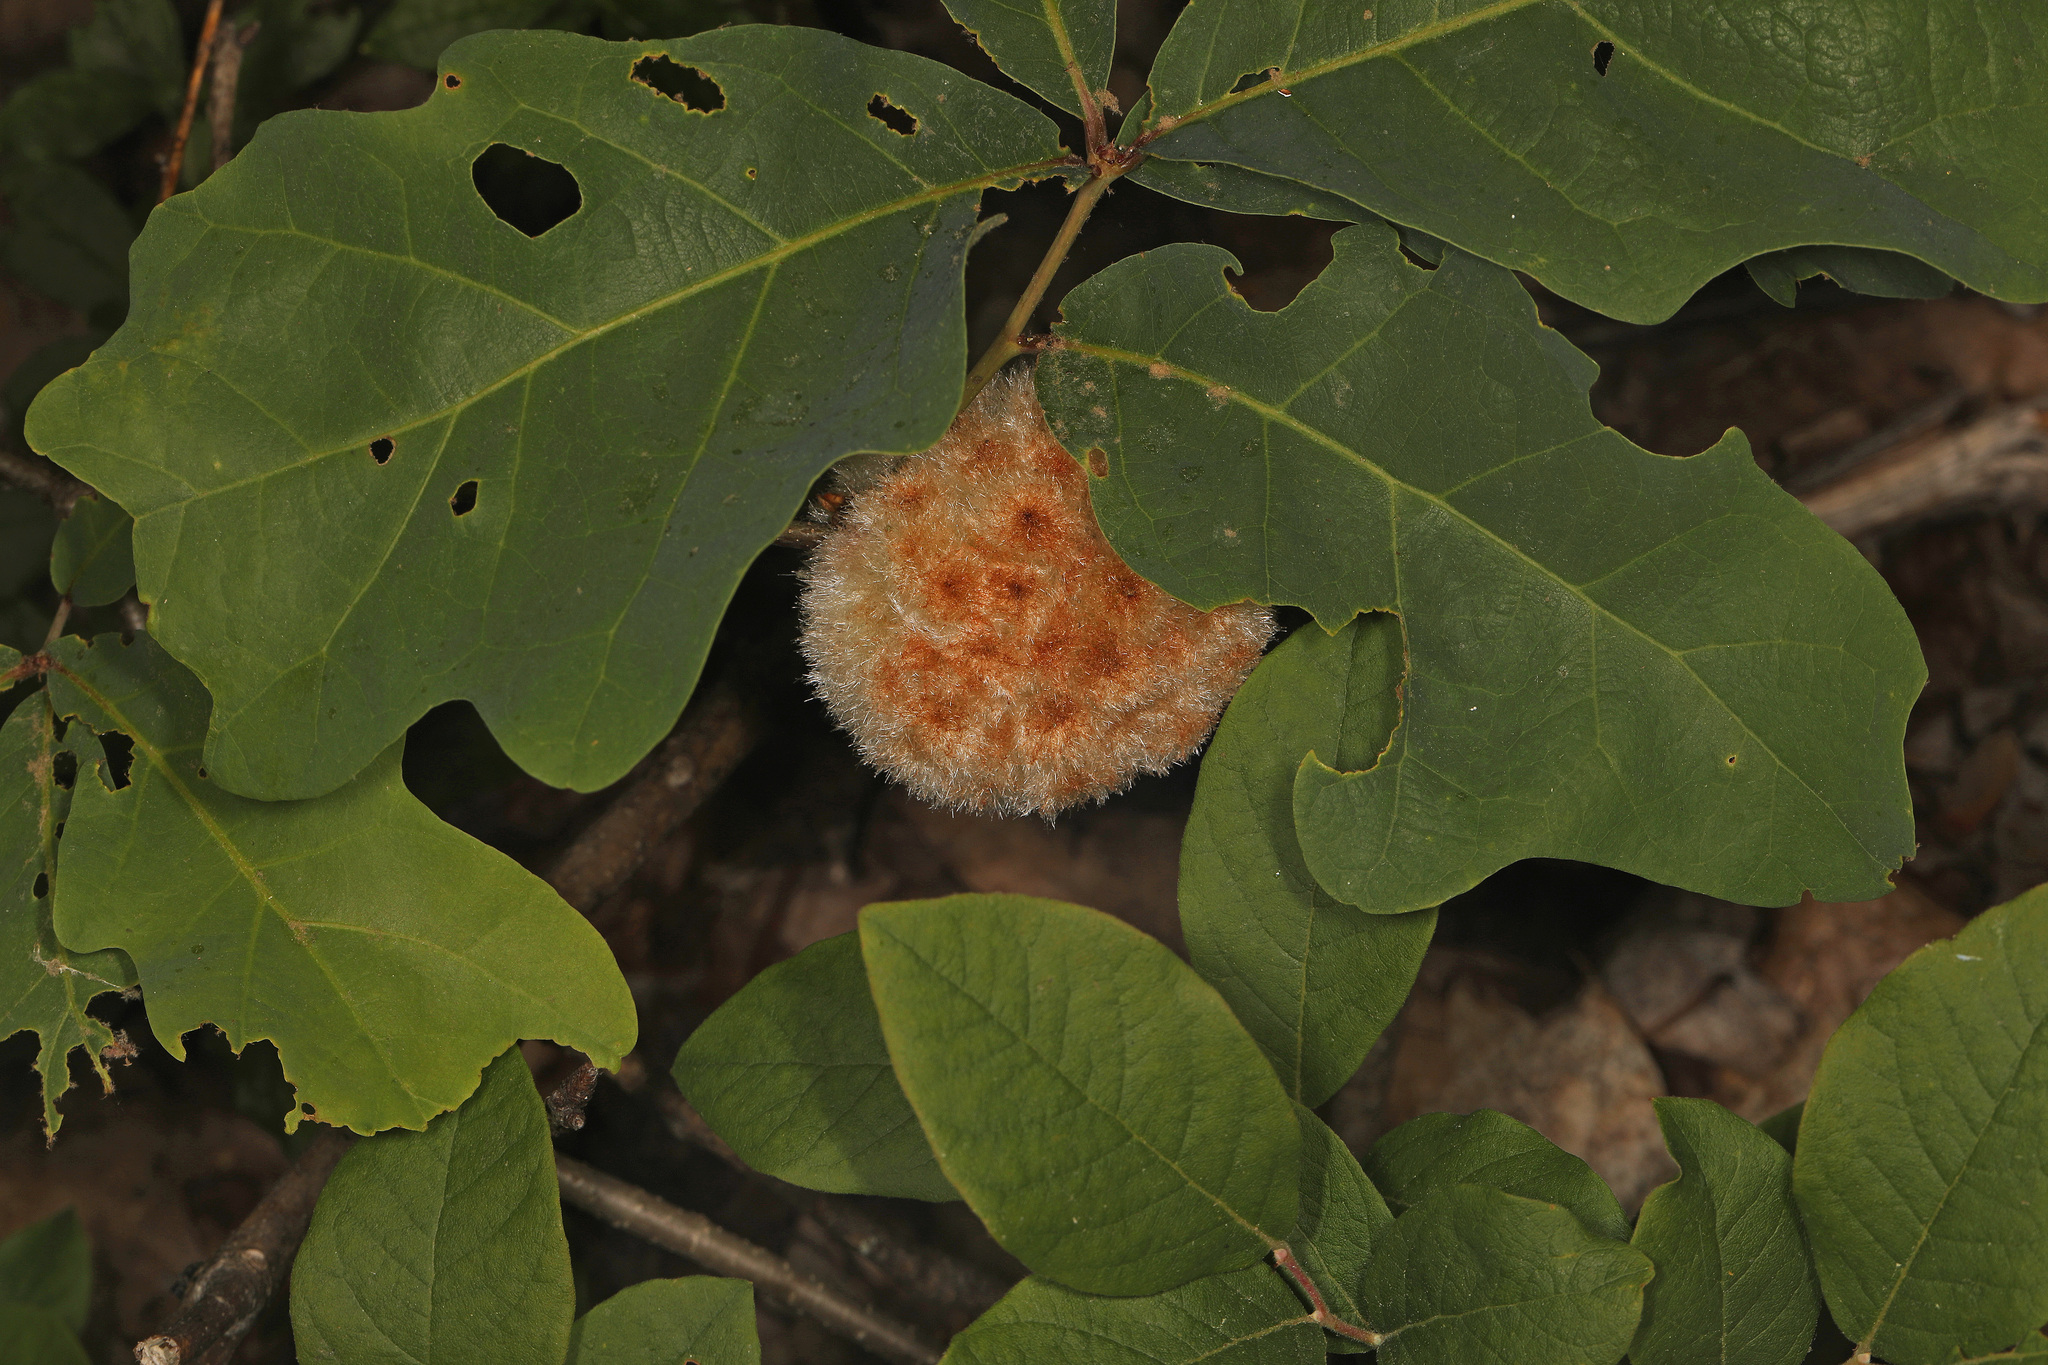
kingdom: Animalia
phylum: Arthropoda
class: Insecta
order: Hymenoptera
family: Cynipidae
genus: Callirhytis
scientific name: Callirhytis
